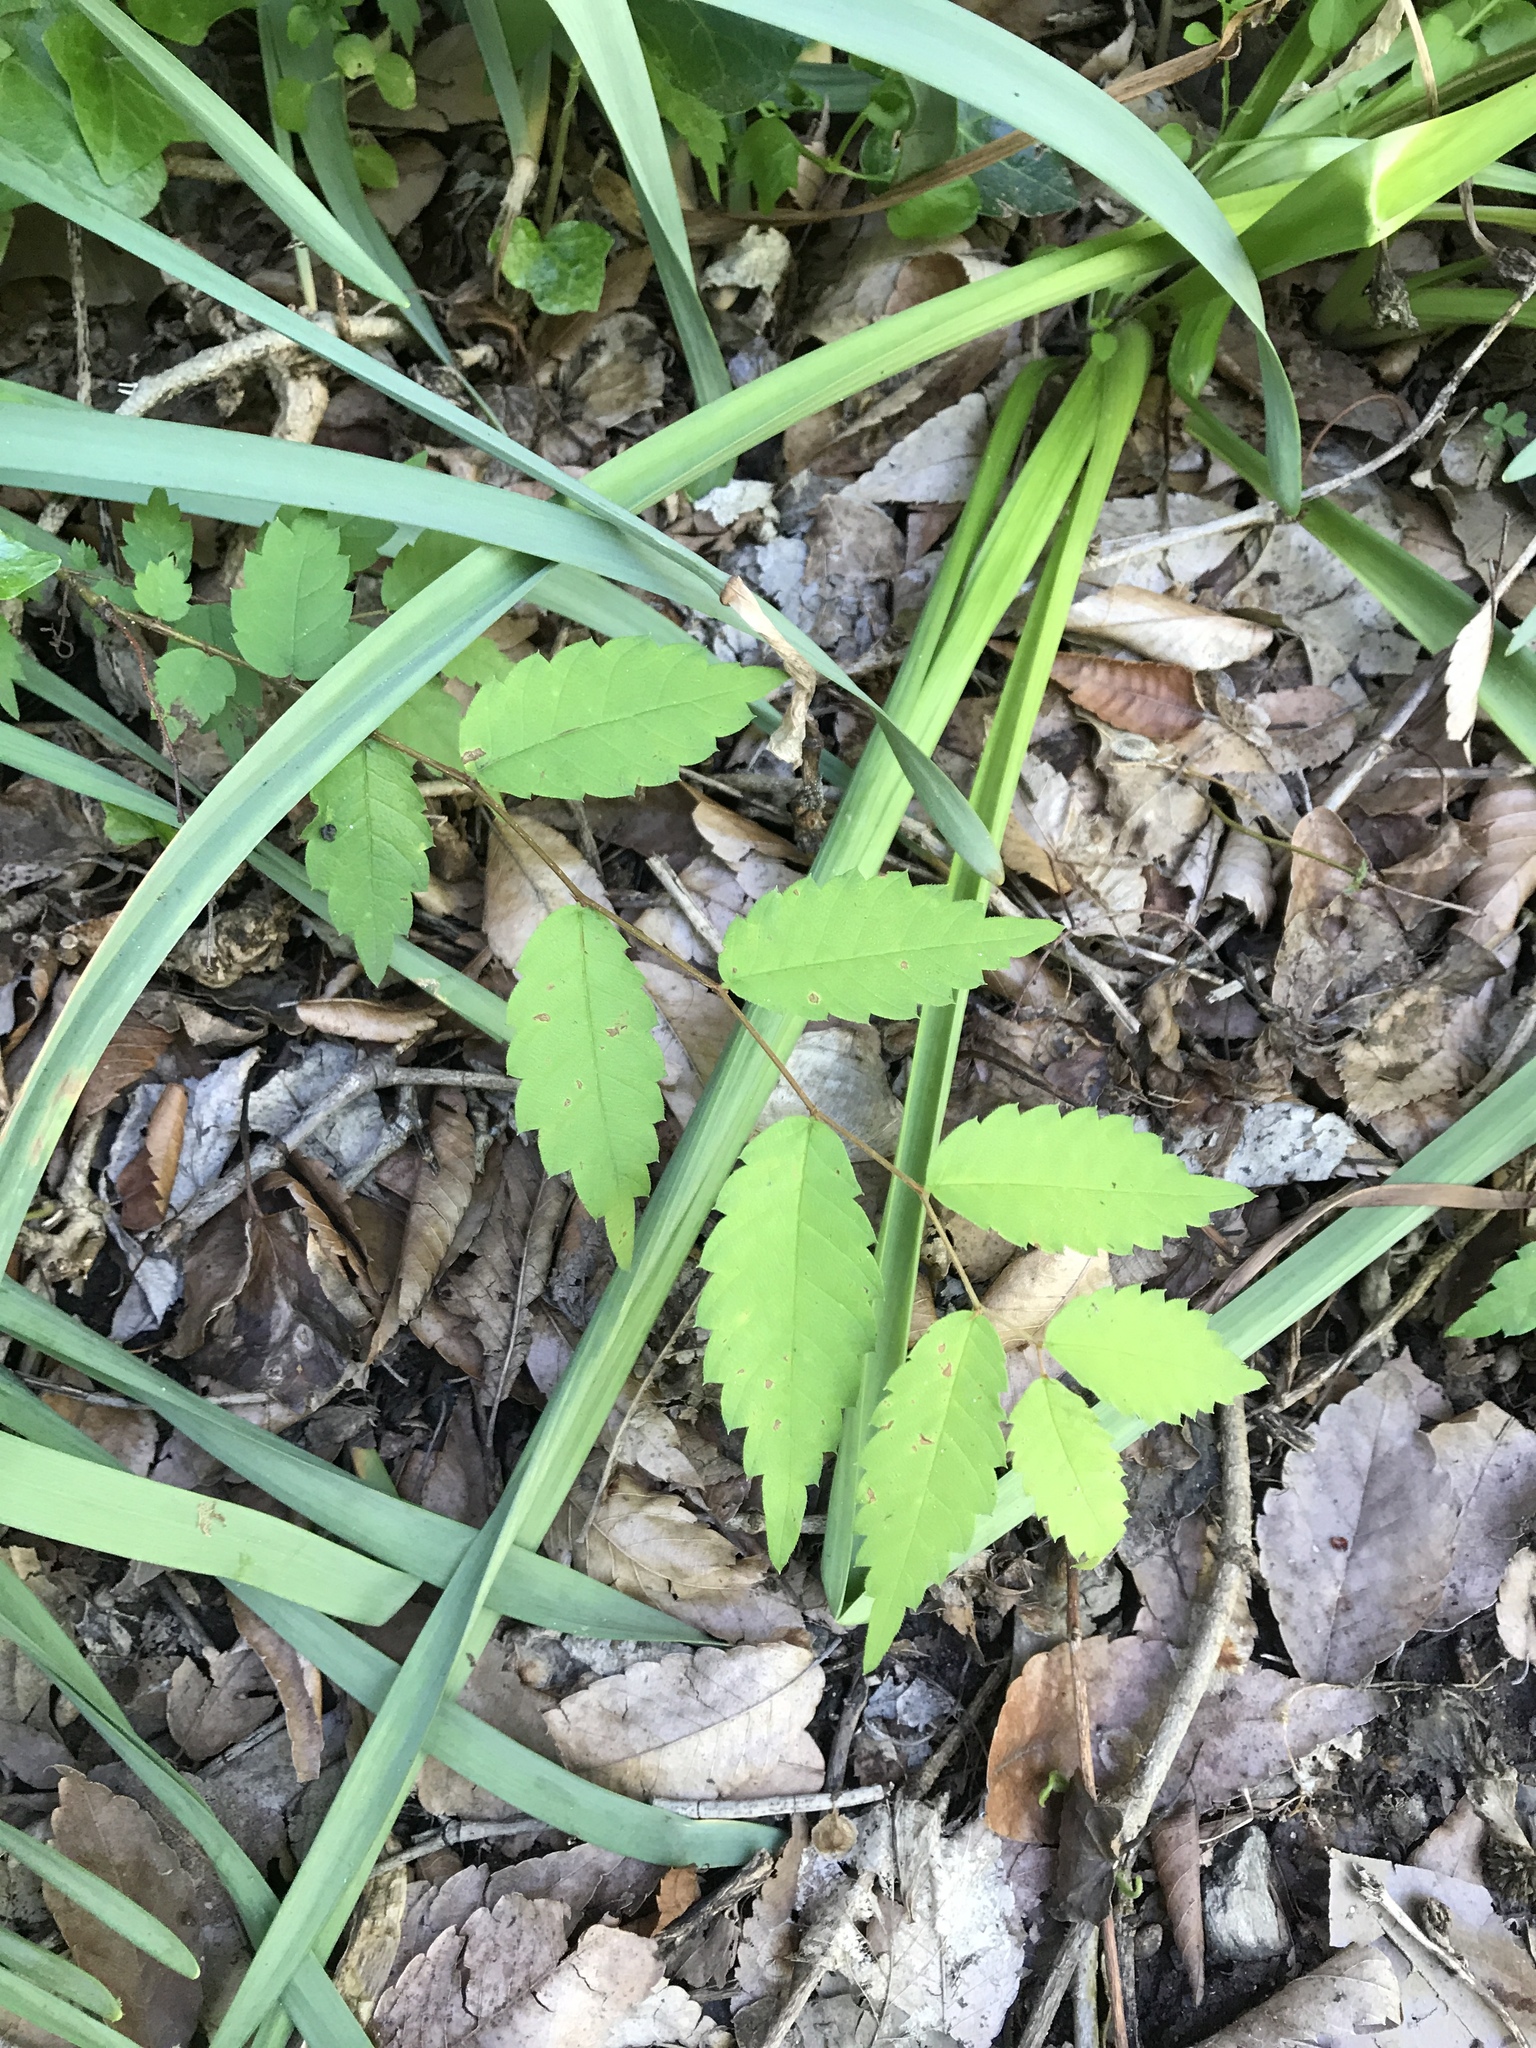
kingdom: Plantae
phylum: Tracheophyta
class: Magnoliopsida
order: Rosales
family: Ulmaceae
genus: Zelkova
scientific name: Zelkova serrata
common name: Japanese zelkova
